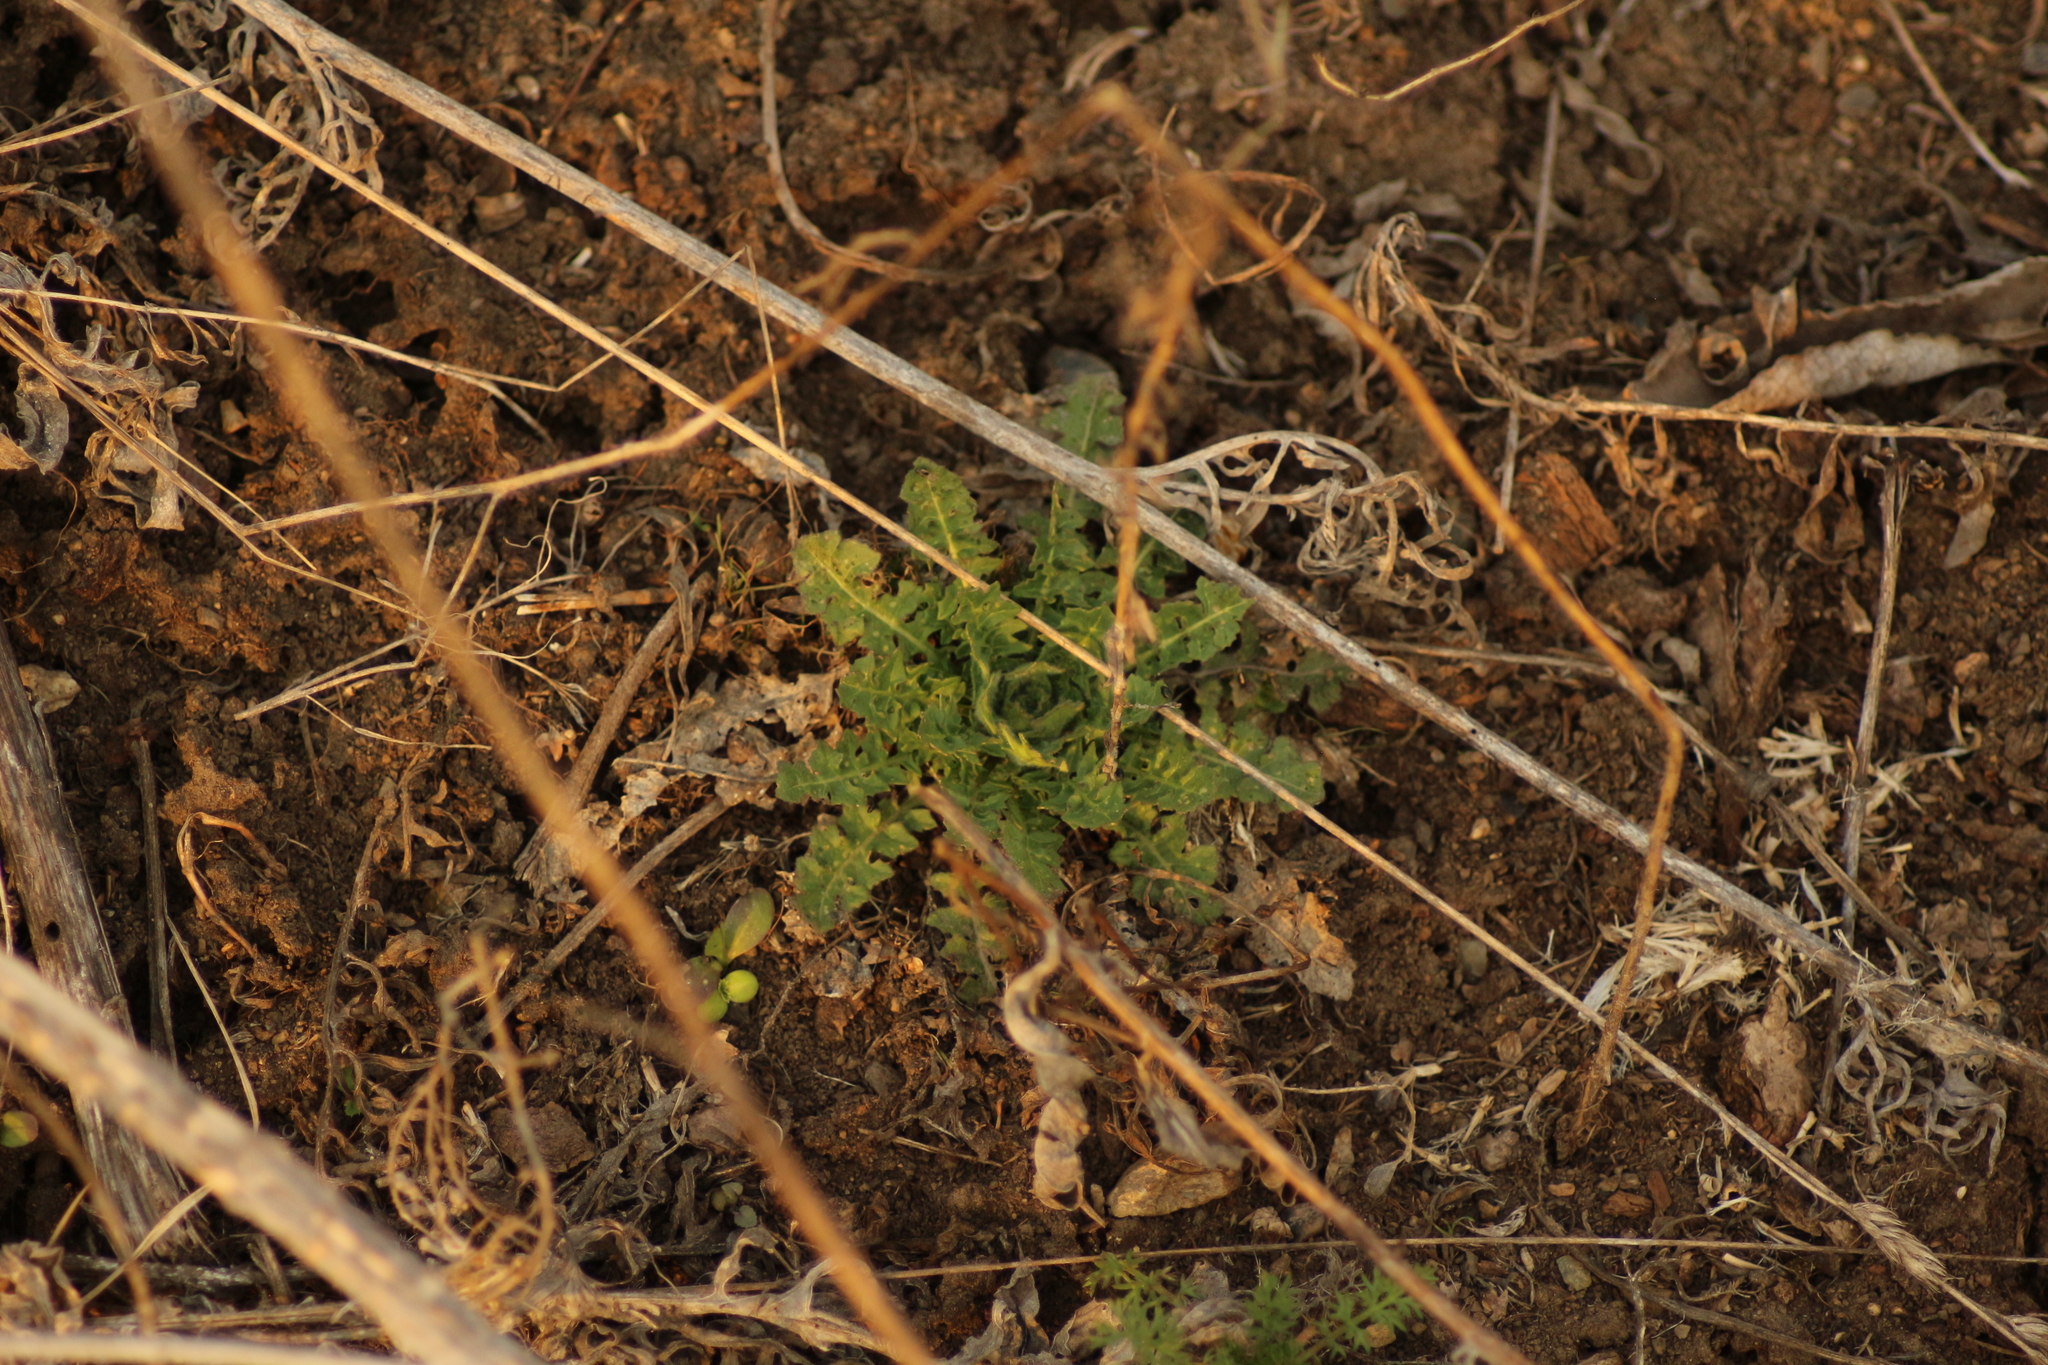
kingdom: Plantae
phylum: Tracheophyta
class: Magnoliopsida
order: Brassicales
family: Brassicaceae
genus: Sisymbrium
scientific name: Sisymbrium loeselii
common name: False london-rocket
